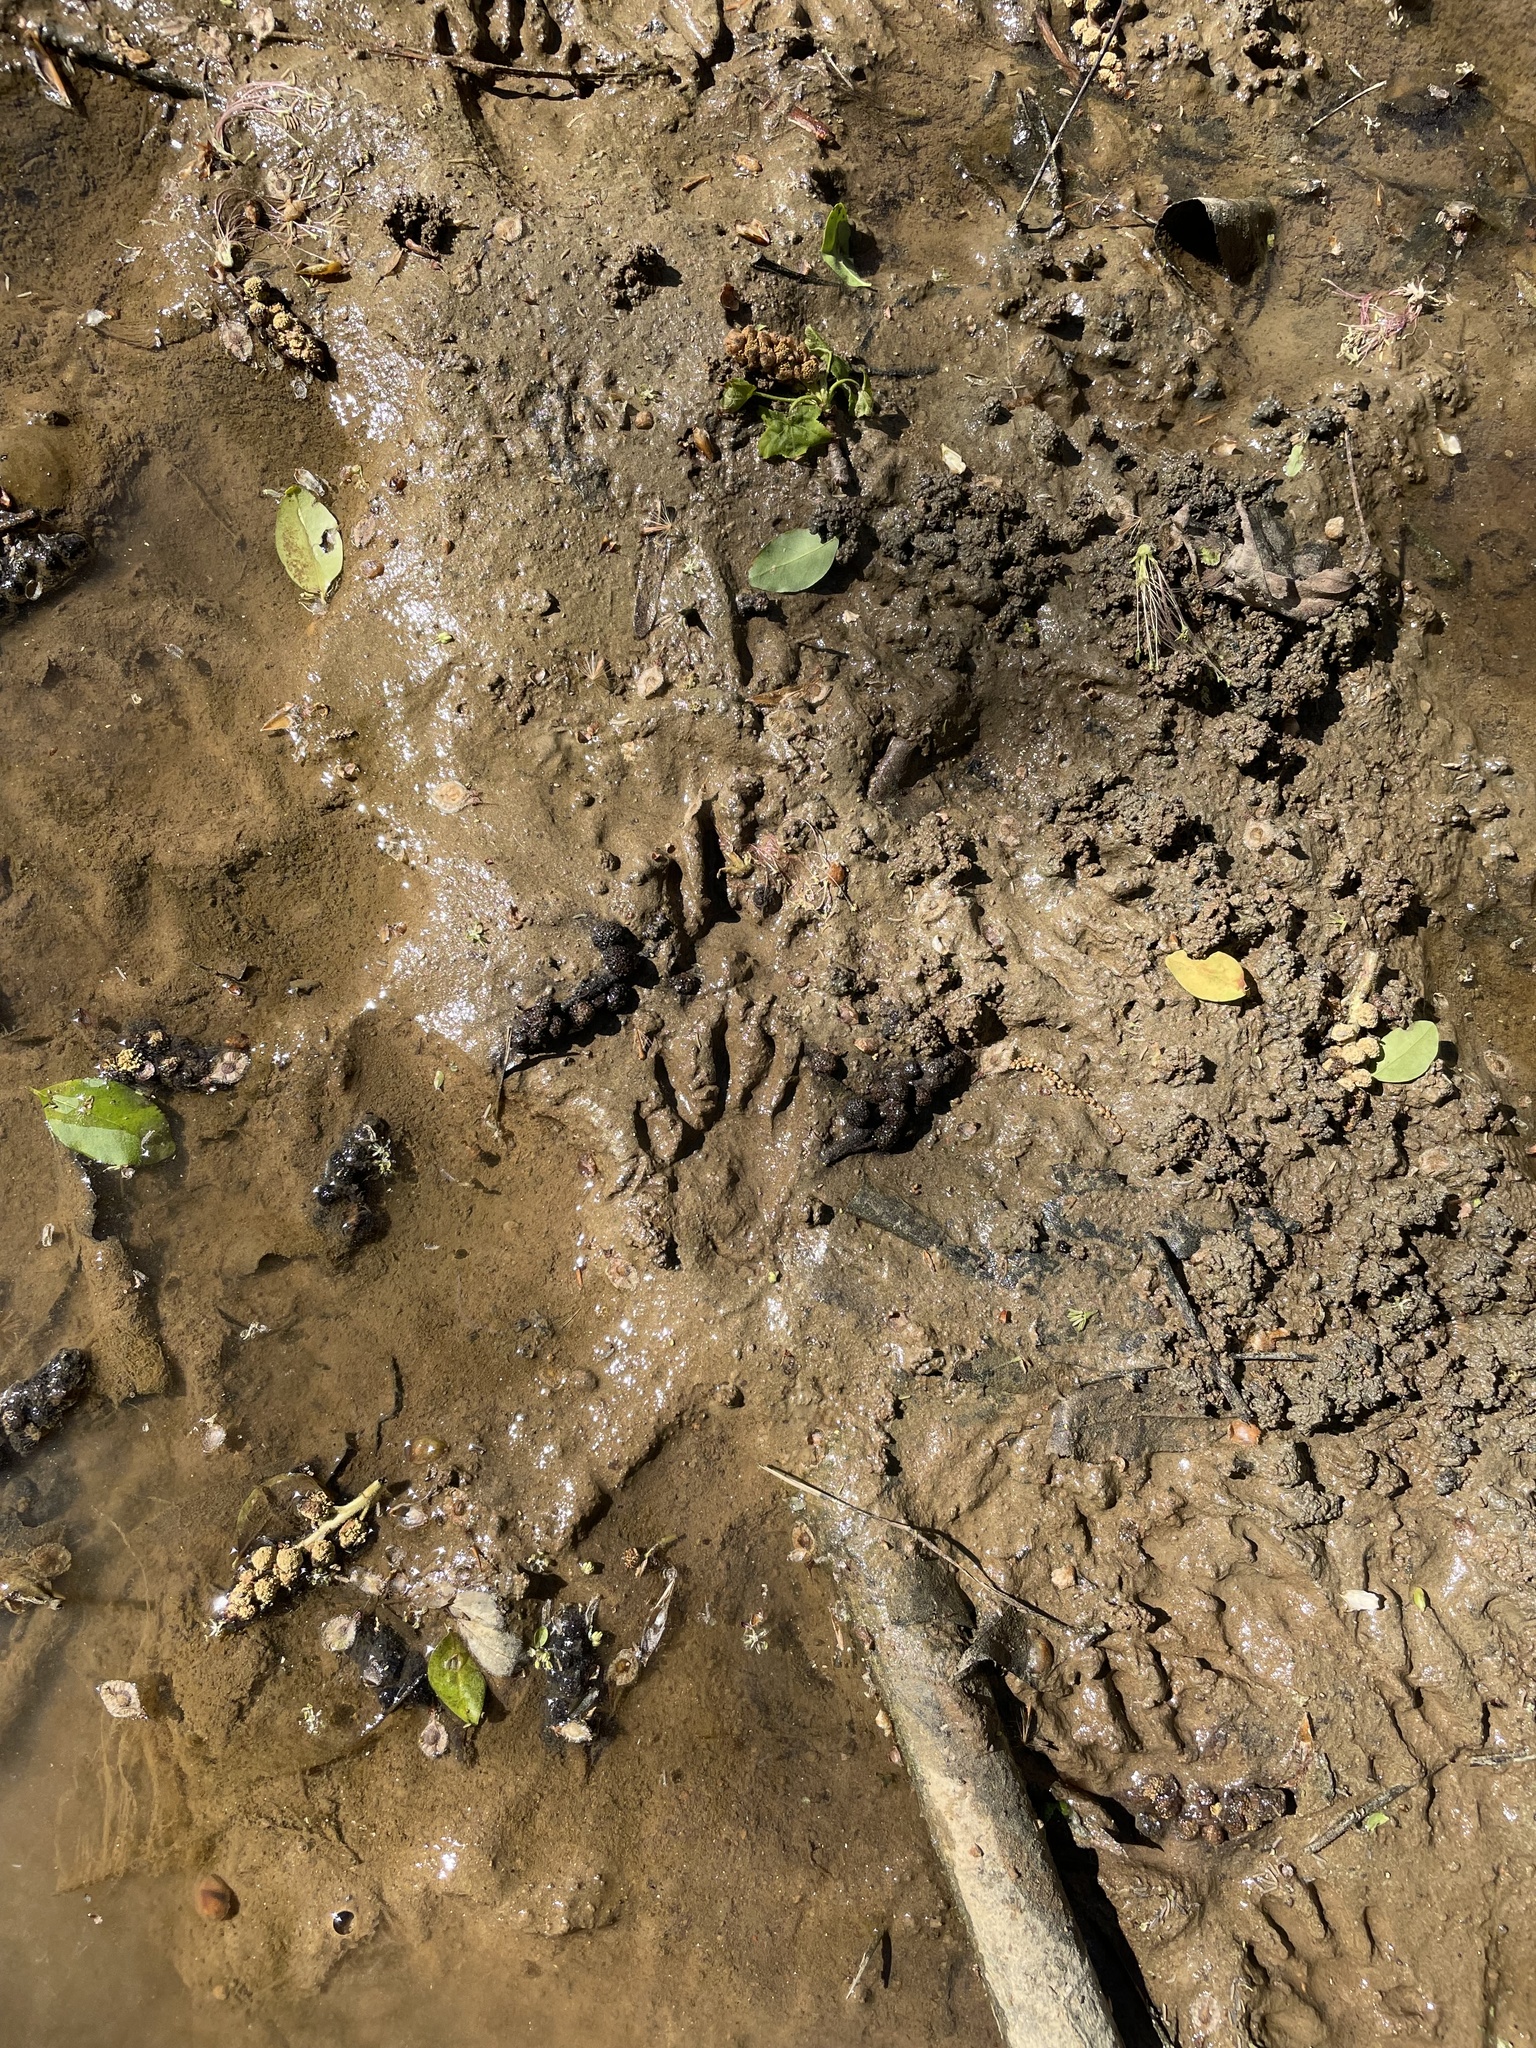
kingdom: Animalia
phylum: Chordata
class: Mammalia
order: Carnivora
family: Procyonidae
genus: Procyon
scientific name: Procyon lotor
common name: Raccoon
